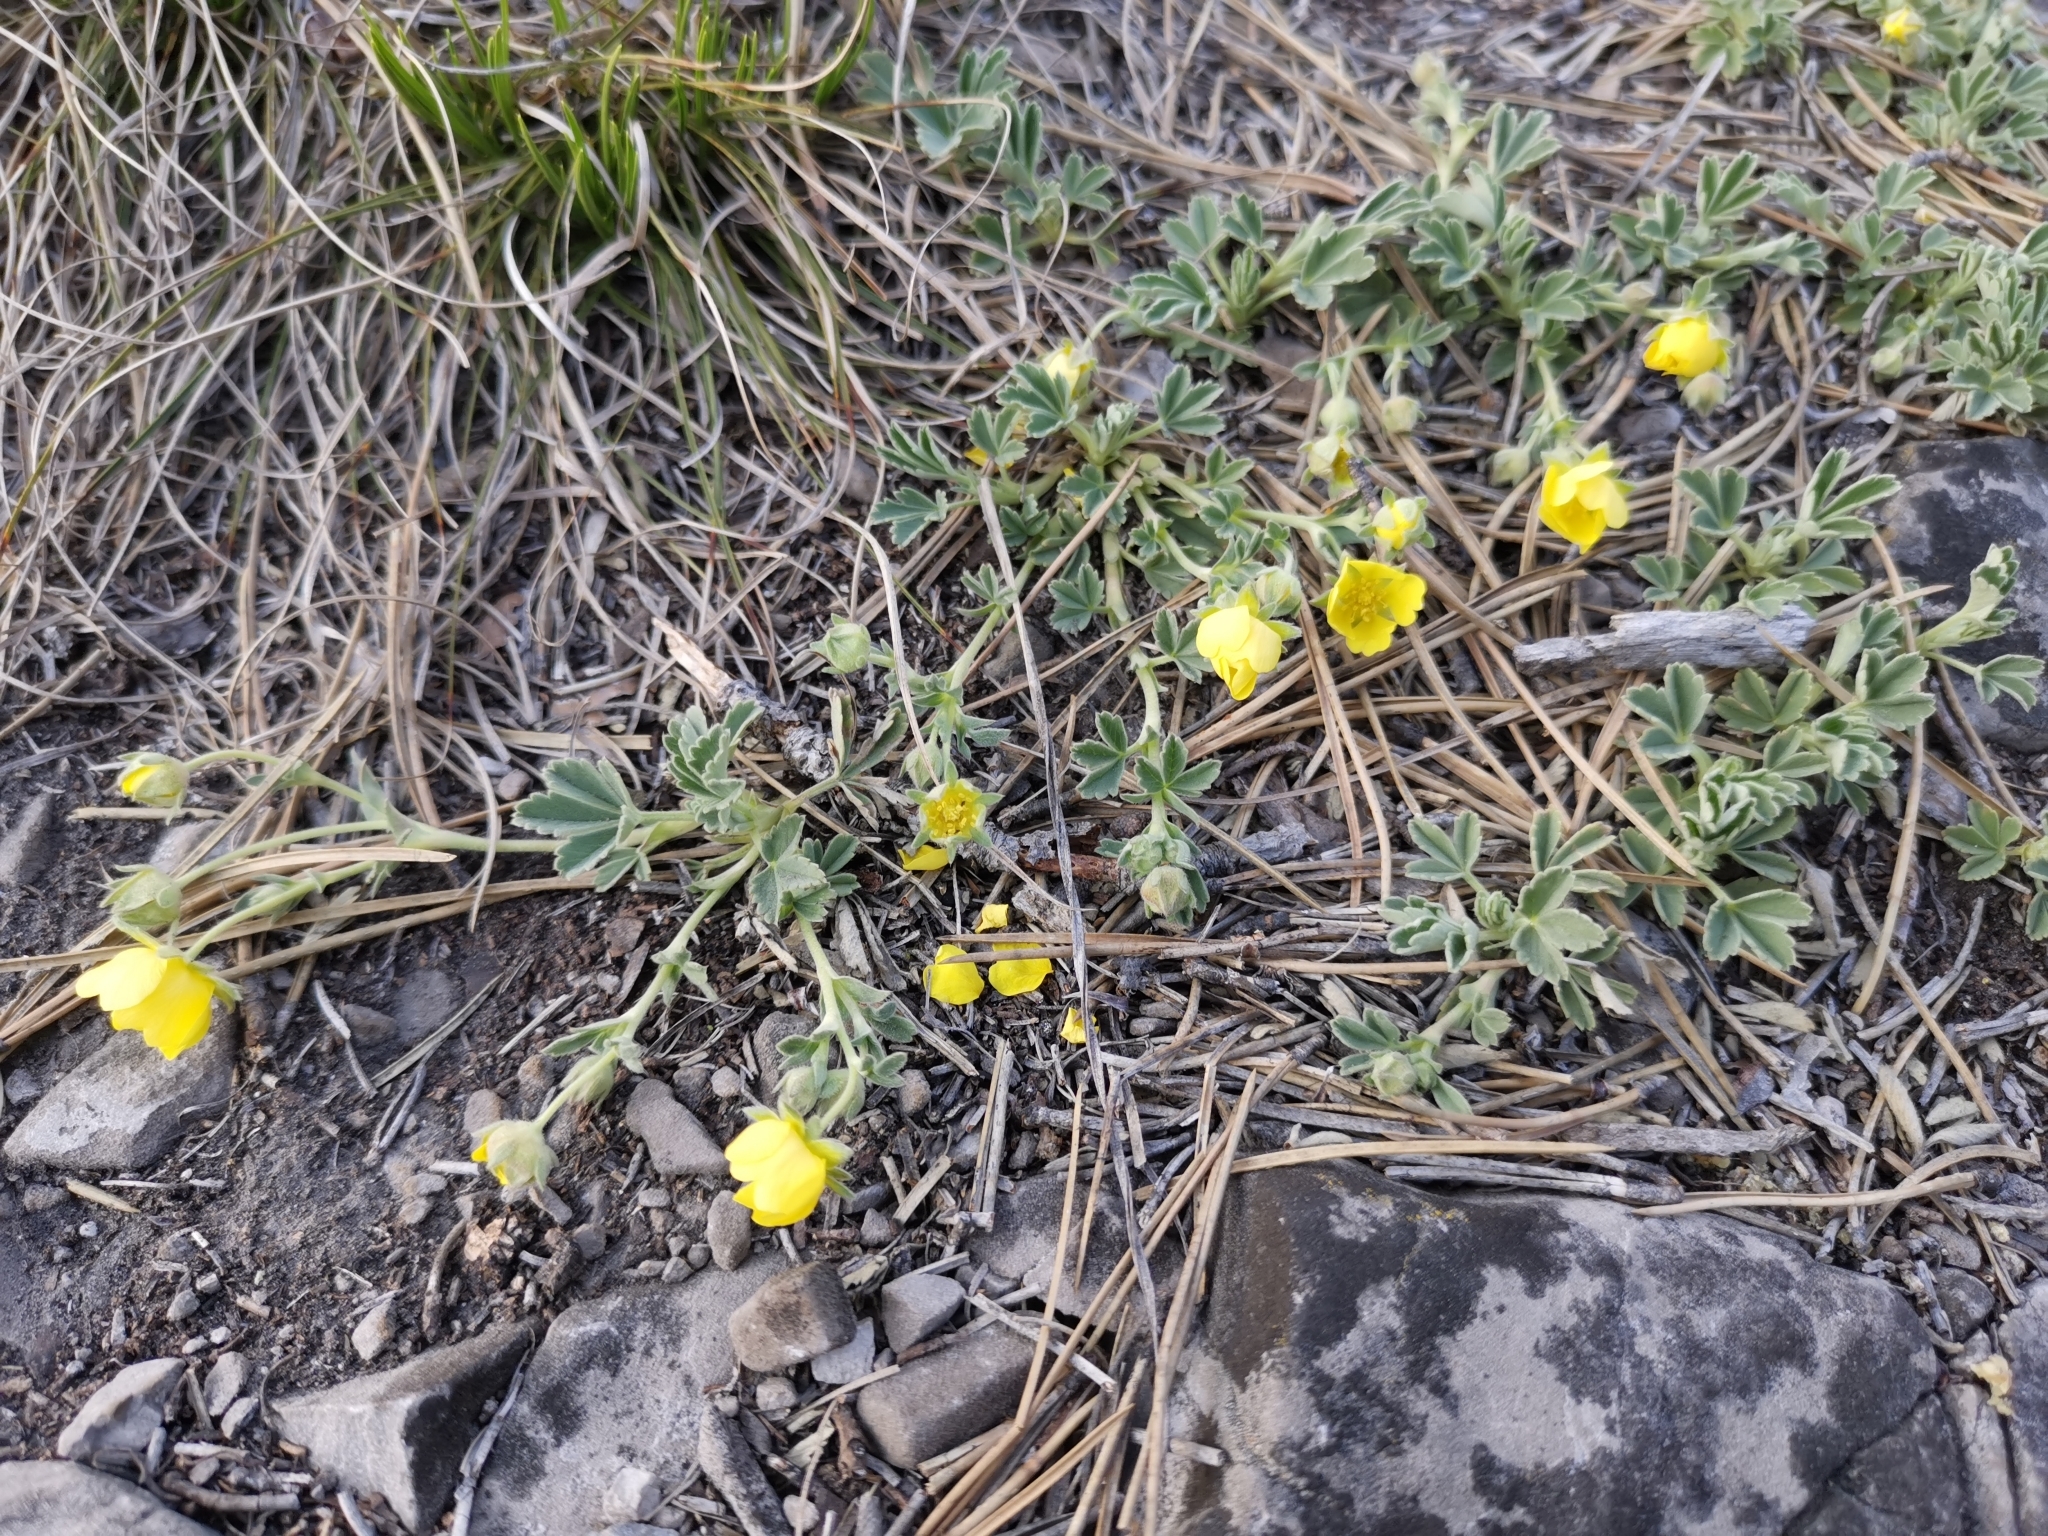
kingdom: Plantae
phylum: Tracheophyta
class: Magnoliopsida
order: Rosales
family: Rosaceae
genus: Potentilla
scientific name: Potentilla incana
